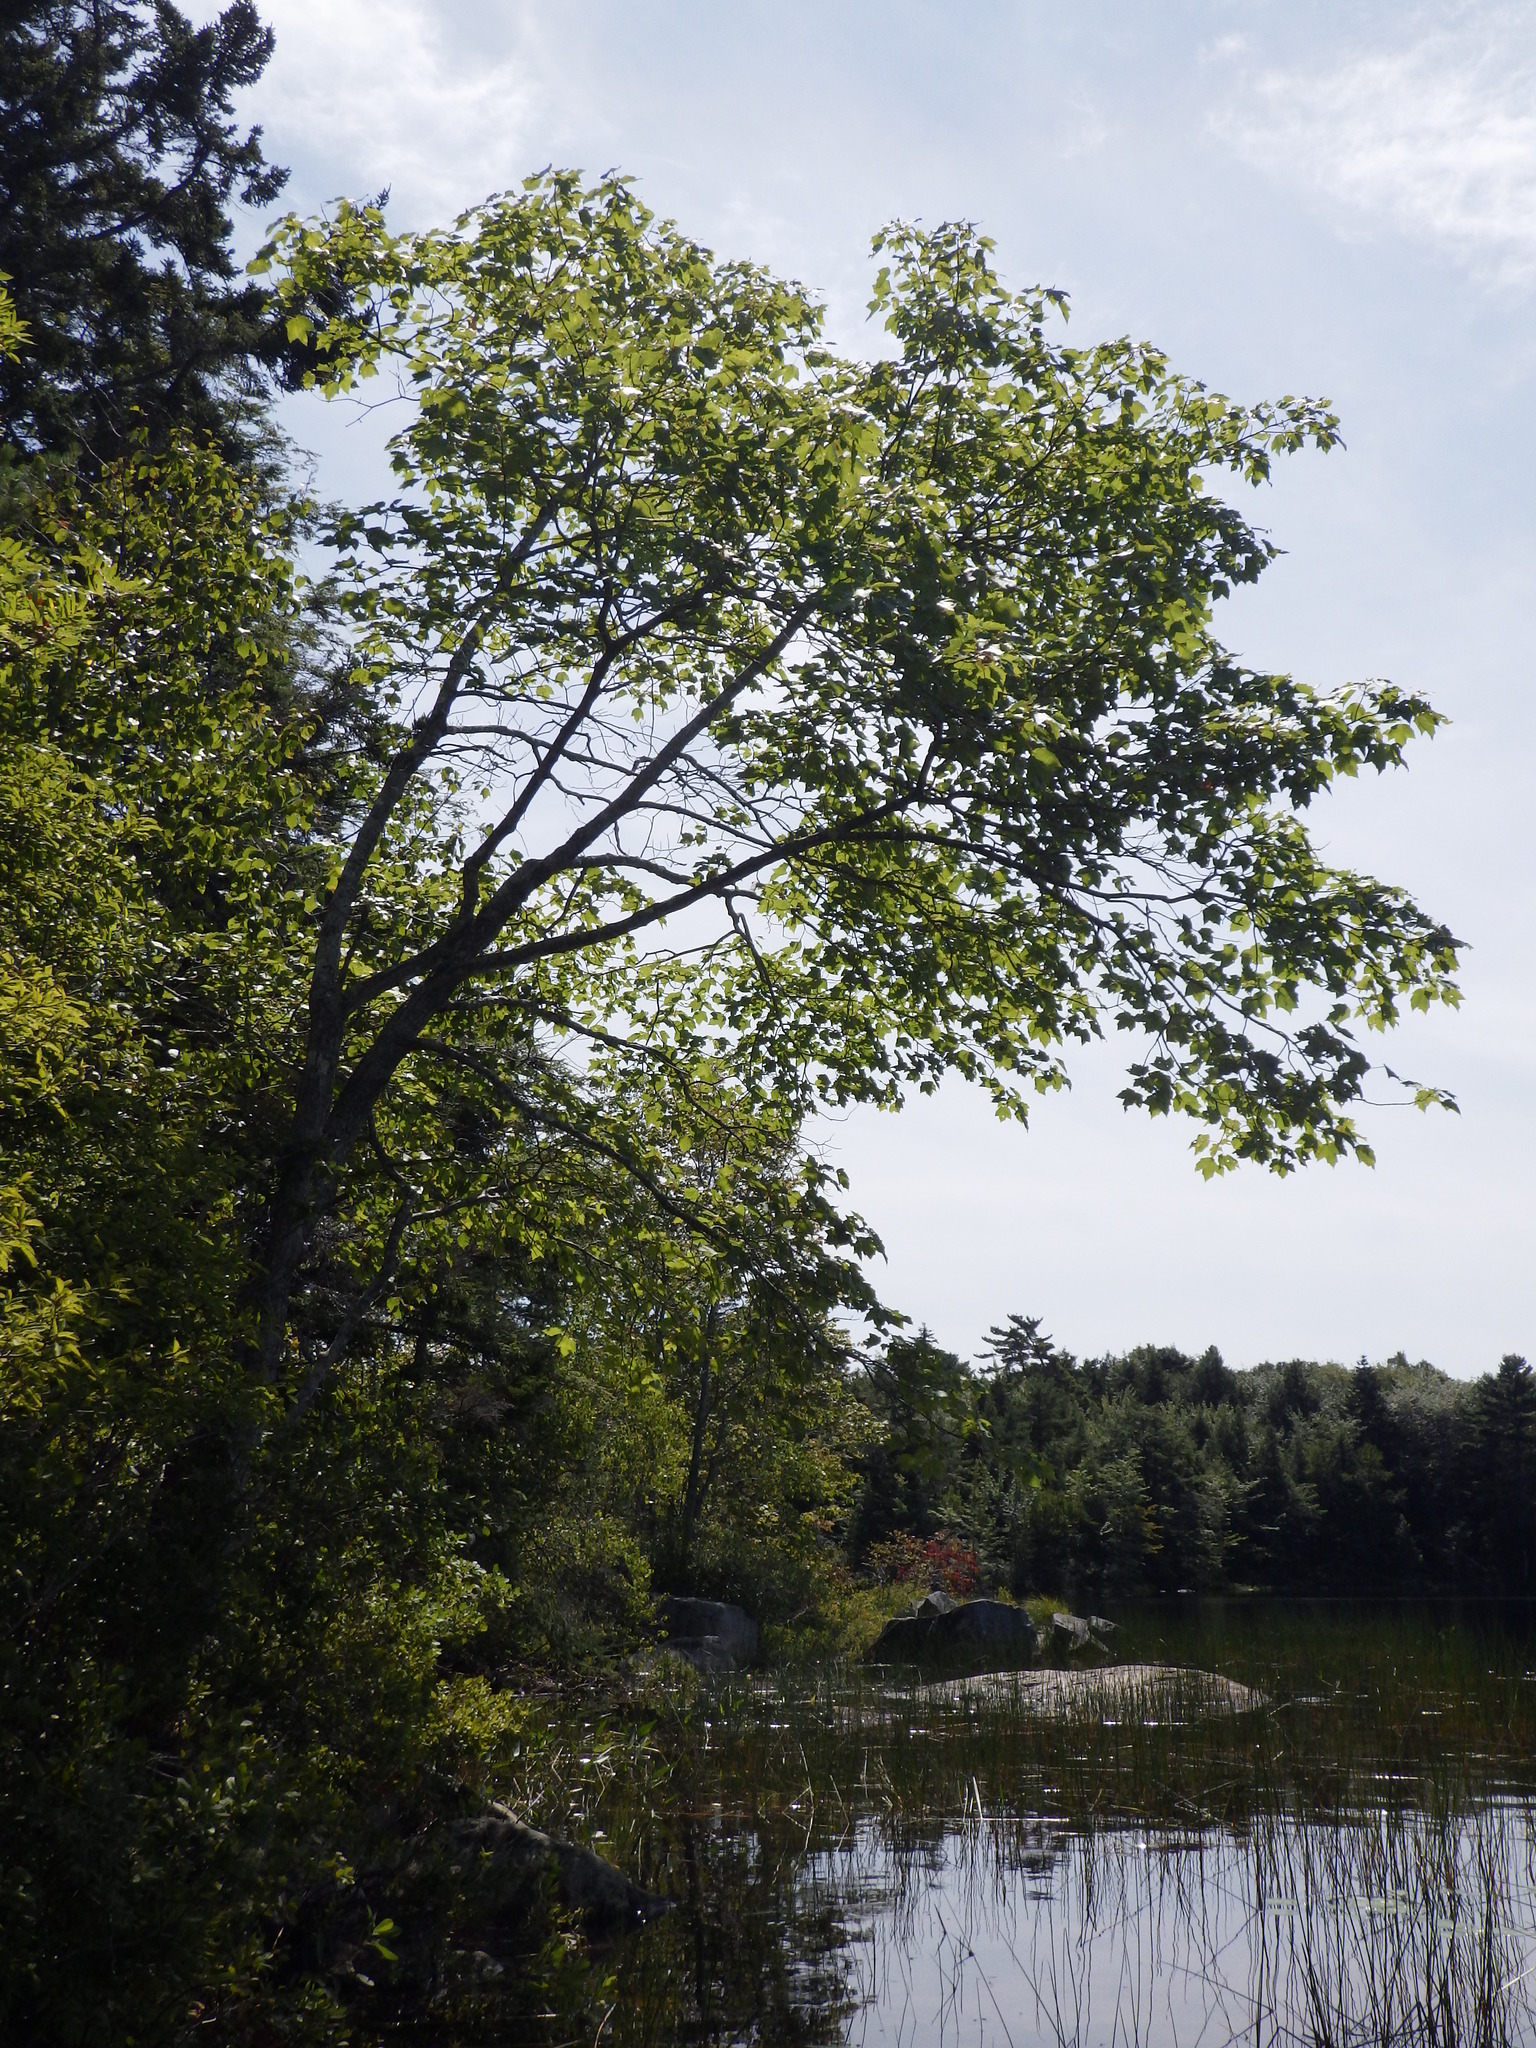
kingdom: Plantae
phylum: Tracheophyta
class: Magnoliopsida
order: Sapindales
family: Sapindaceae
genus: Acer
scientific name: Acer rubrum
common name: Red maple
